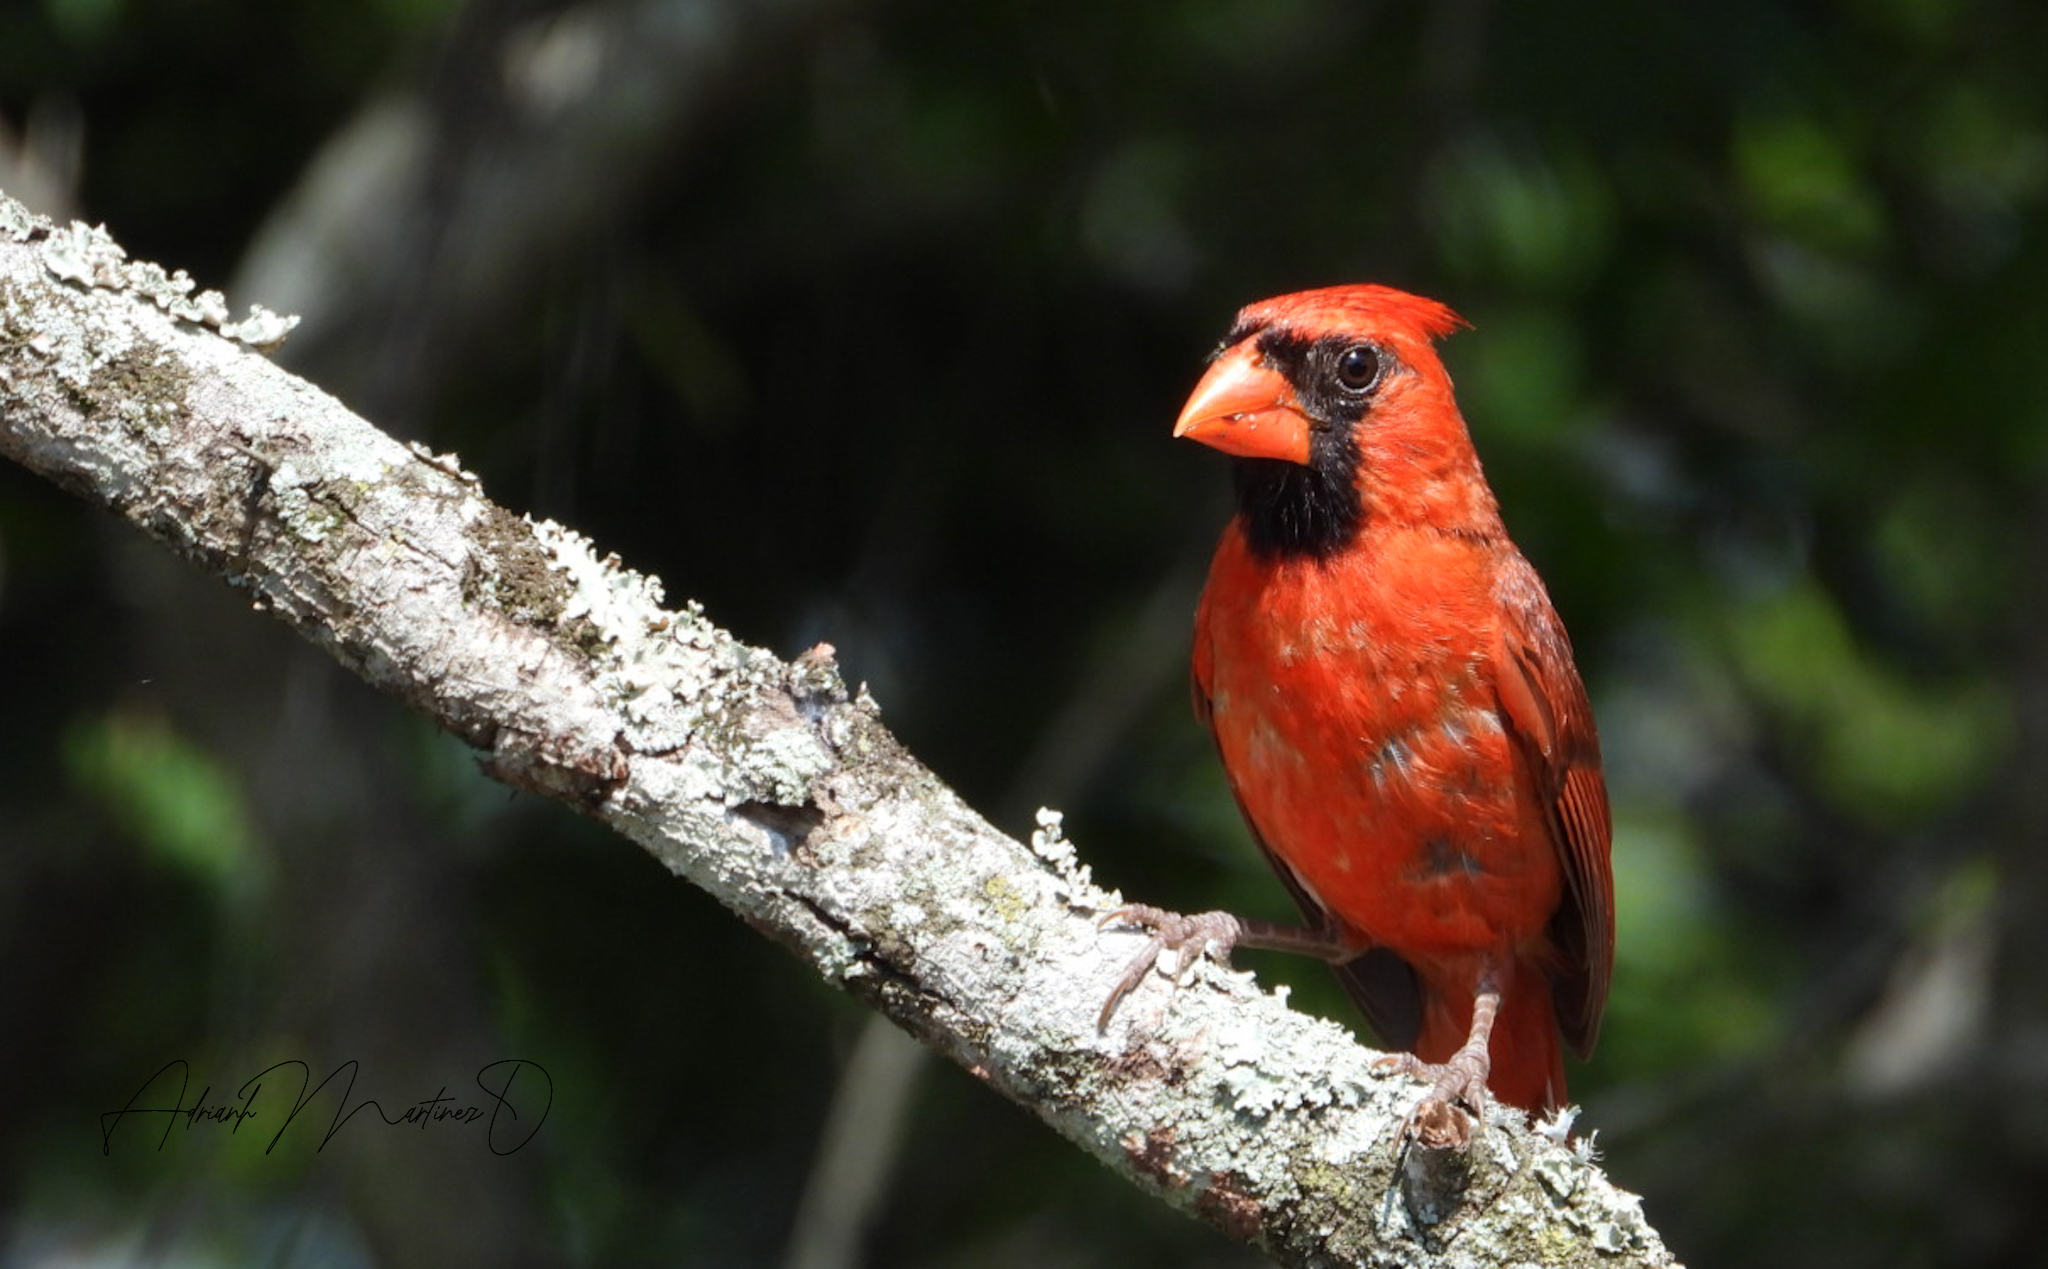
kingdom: Animalia
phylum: Chordata
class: Aves
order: Passeriformes
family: Cardinalidae
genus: Cardinalis
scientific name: Cardinalis cardinalis
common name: Northern cardinal
